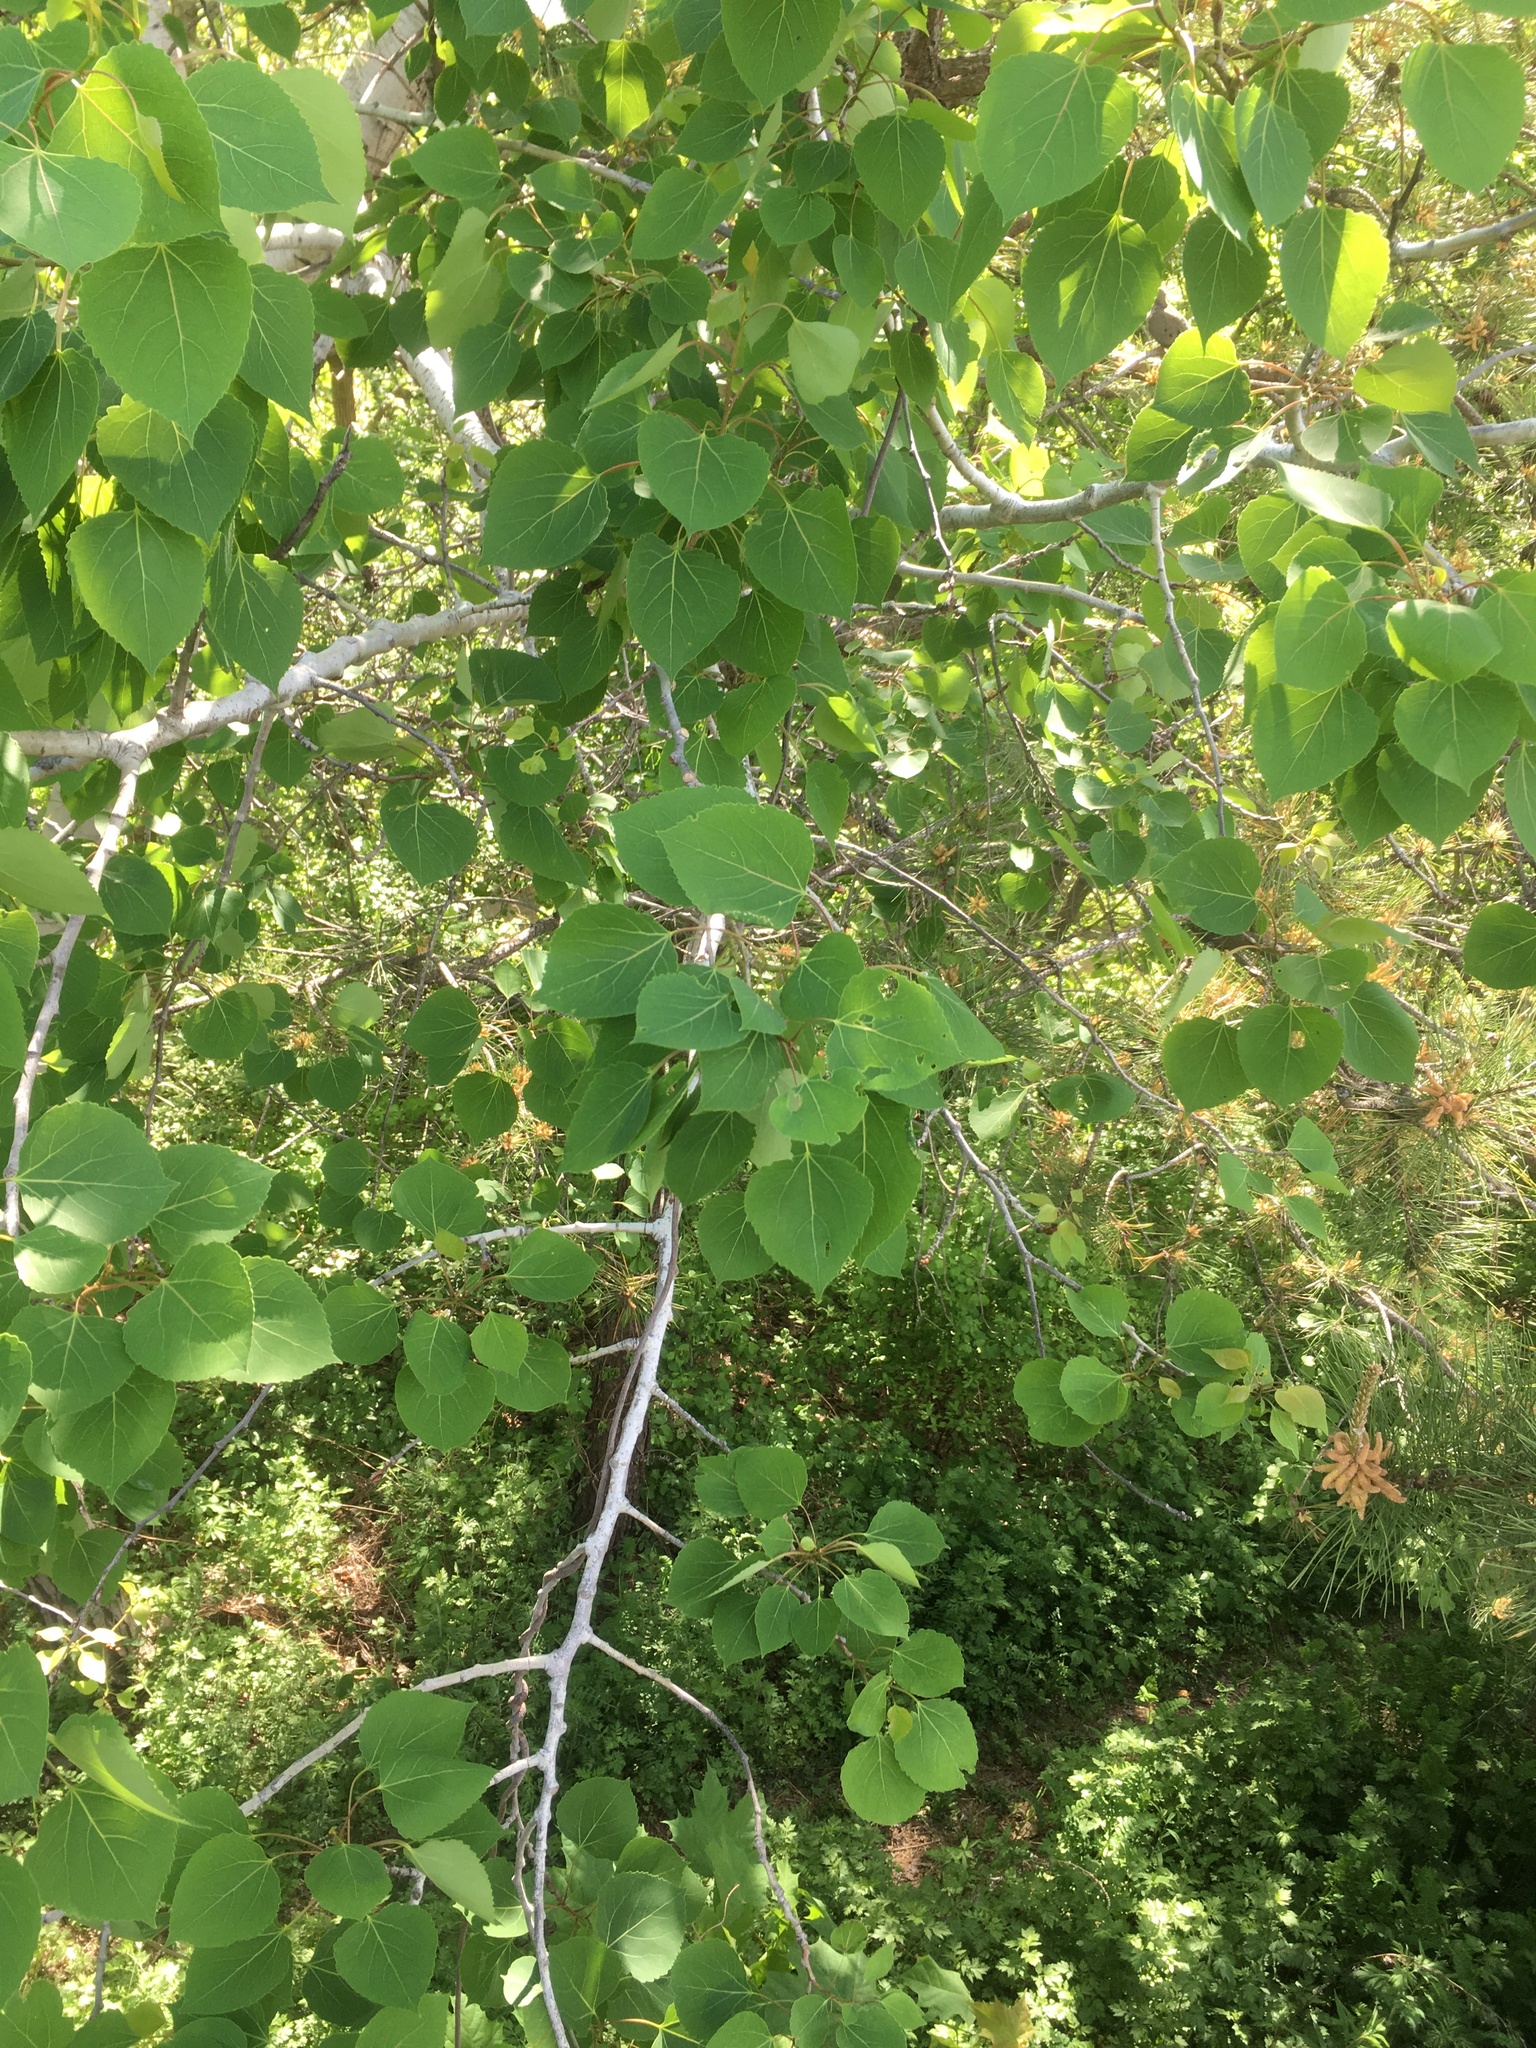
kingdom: Plantae
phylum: Tracheophyta
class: Magnoliopsida
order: Malpighiales
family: Salicaceae
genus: Populus
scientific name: Populus tremuloides
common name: Quaking aspen
